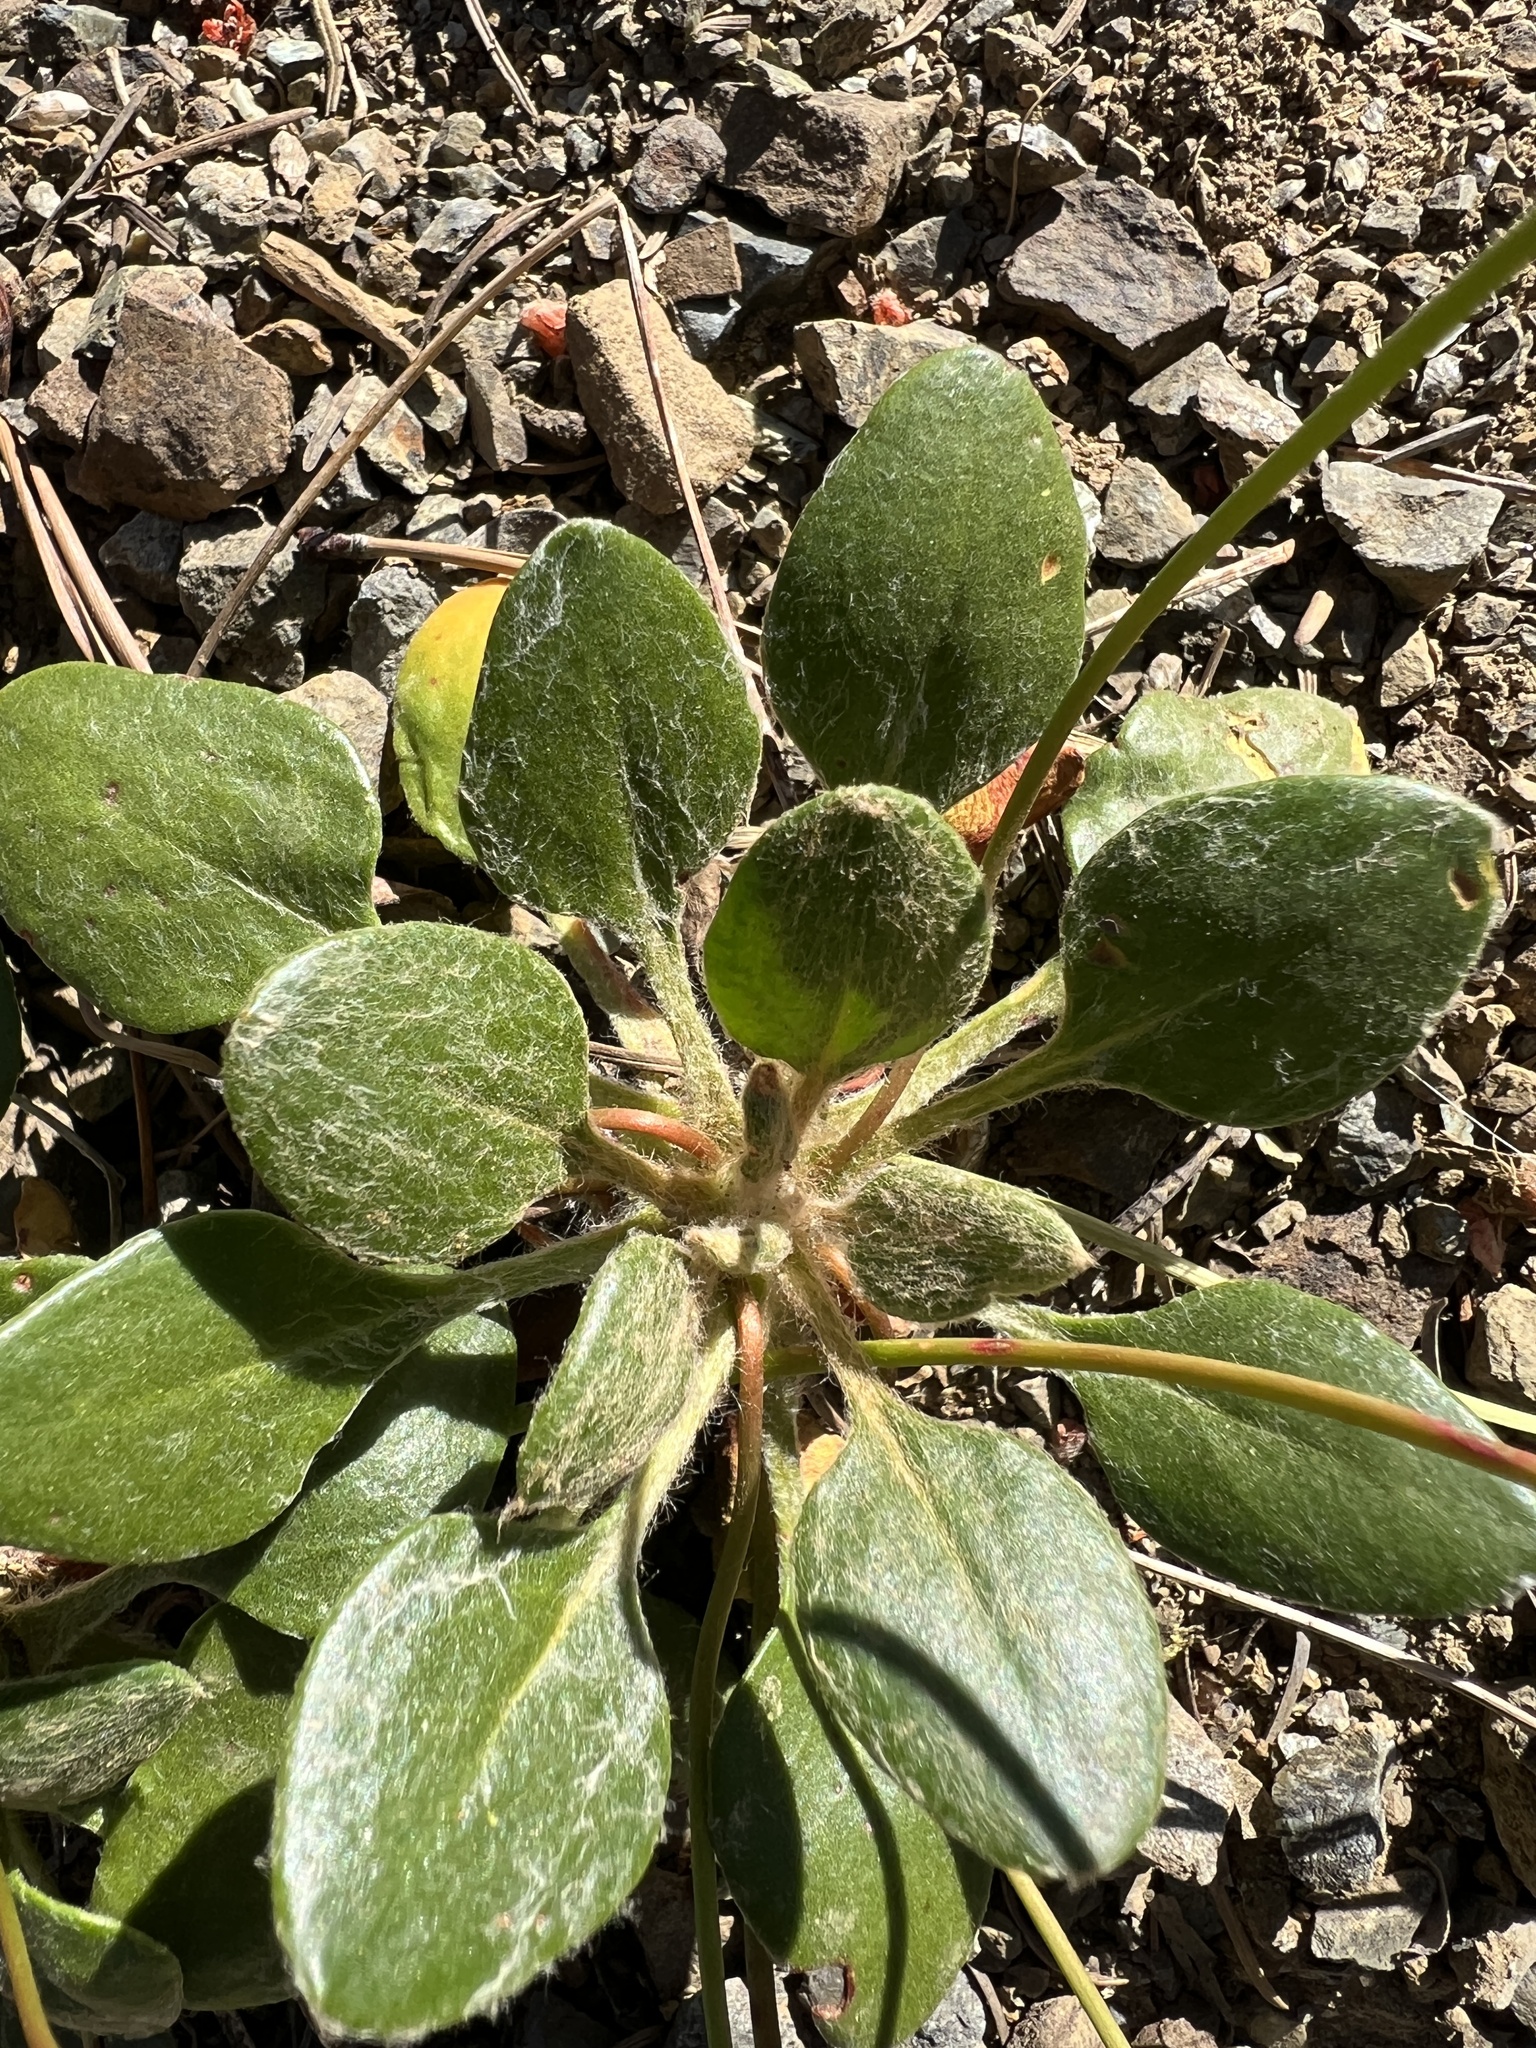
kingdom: Plantae
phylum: Tracheophyta
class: Magnoliopsida
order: Caryophyllales
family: Polygonaceae
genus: Eriogonum
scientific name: Eriogonum pyrolifolium
